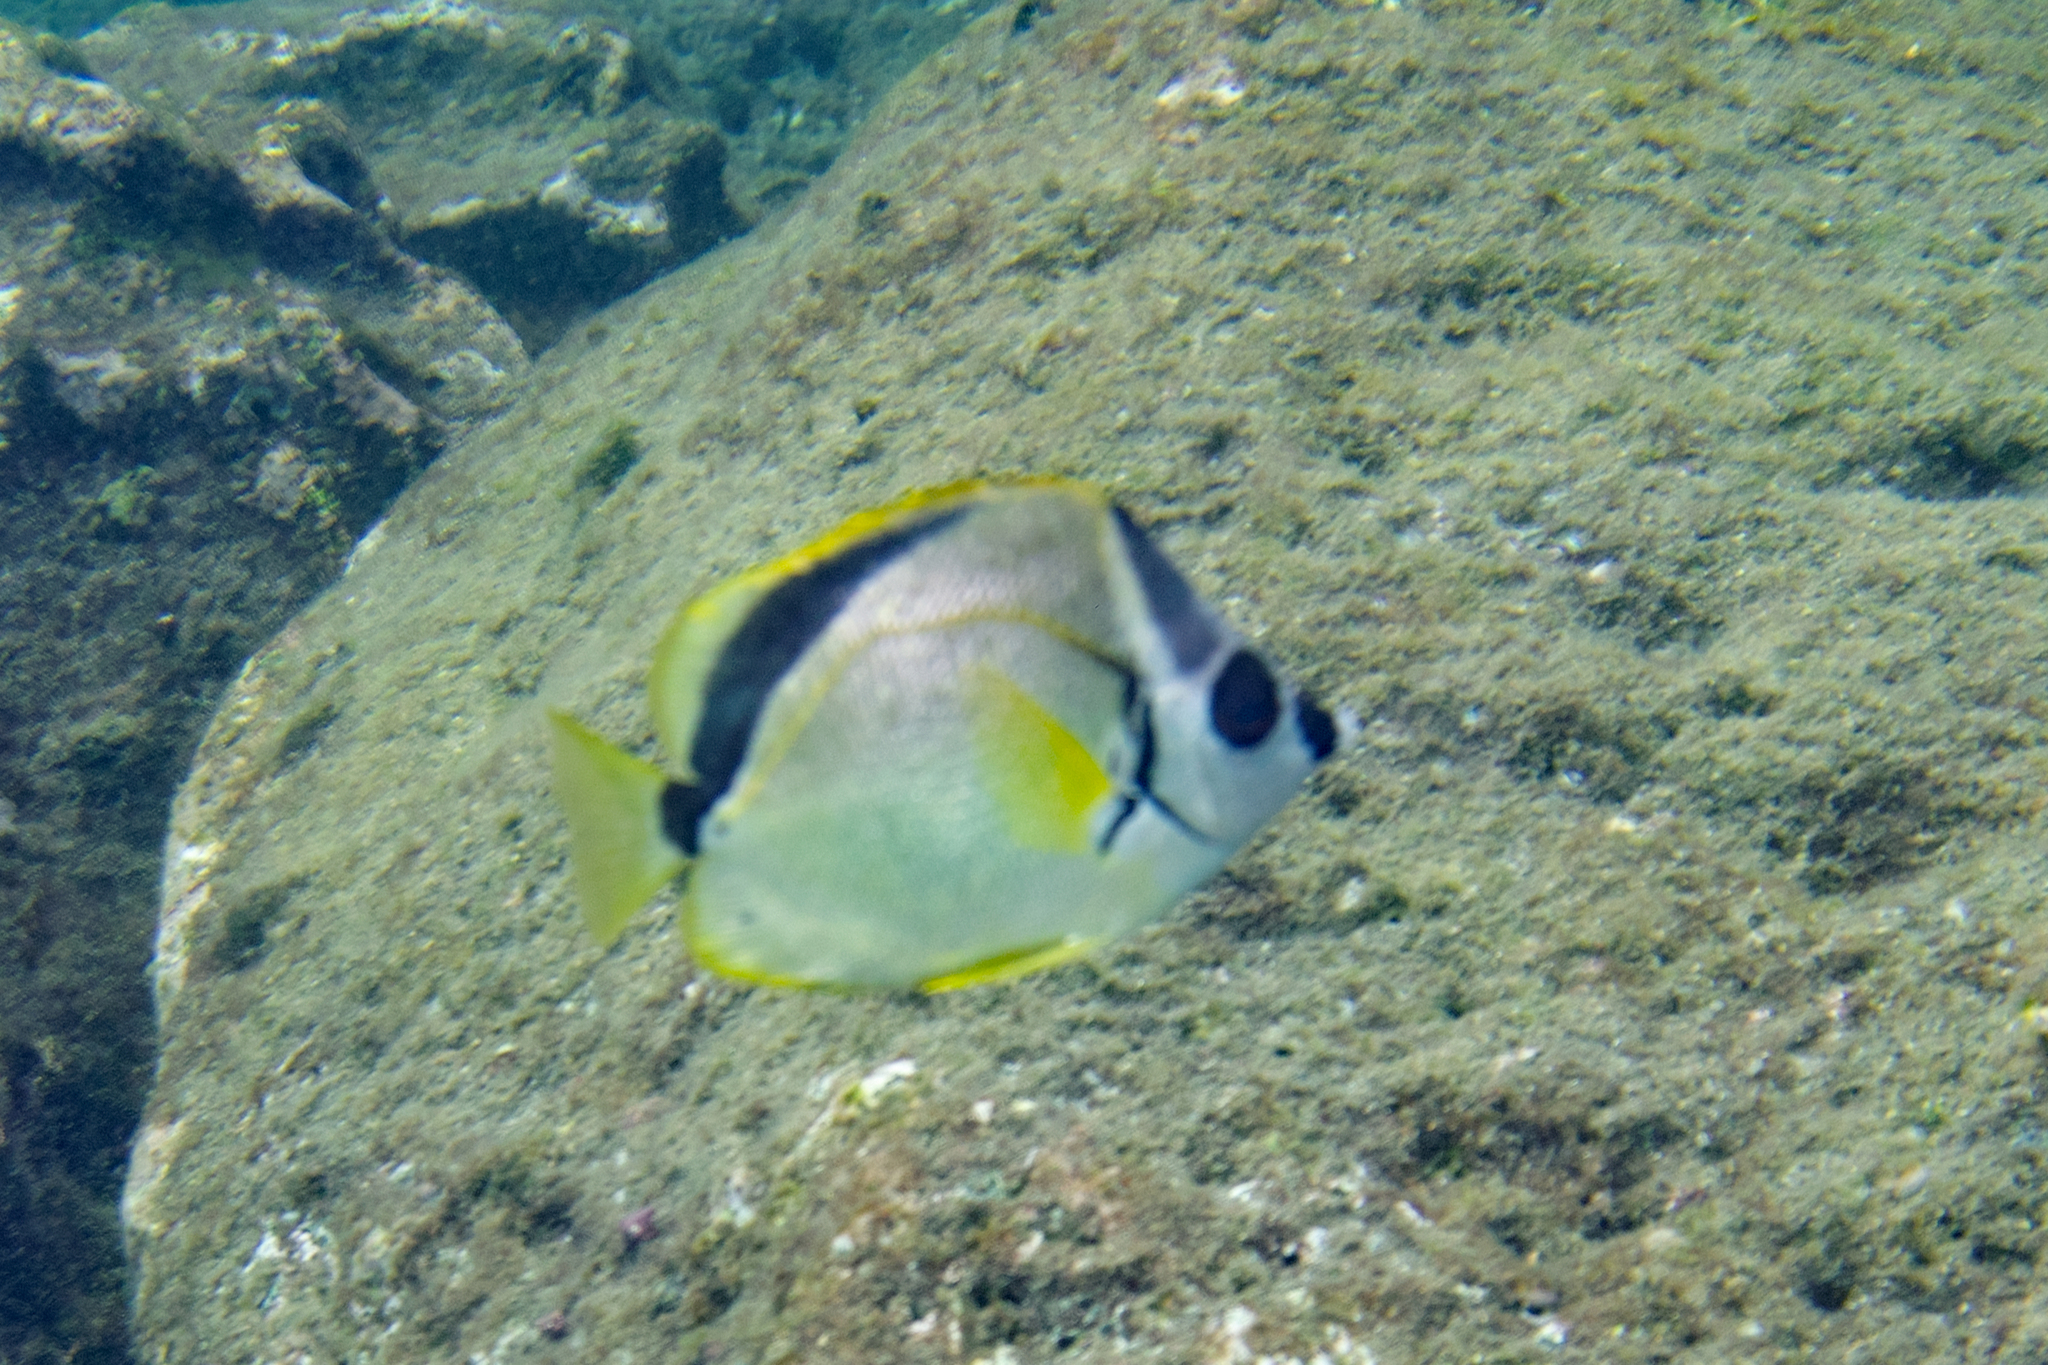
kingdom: Animalia
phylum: Chordata
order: Perciformes
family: Chaetodontidae
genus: Johnrandallia
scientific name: Johnrandallia nigrirostris
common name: Barberfish
